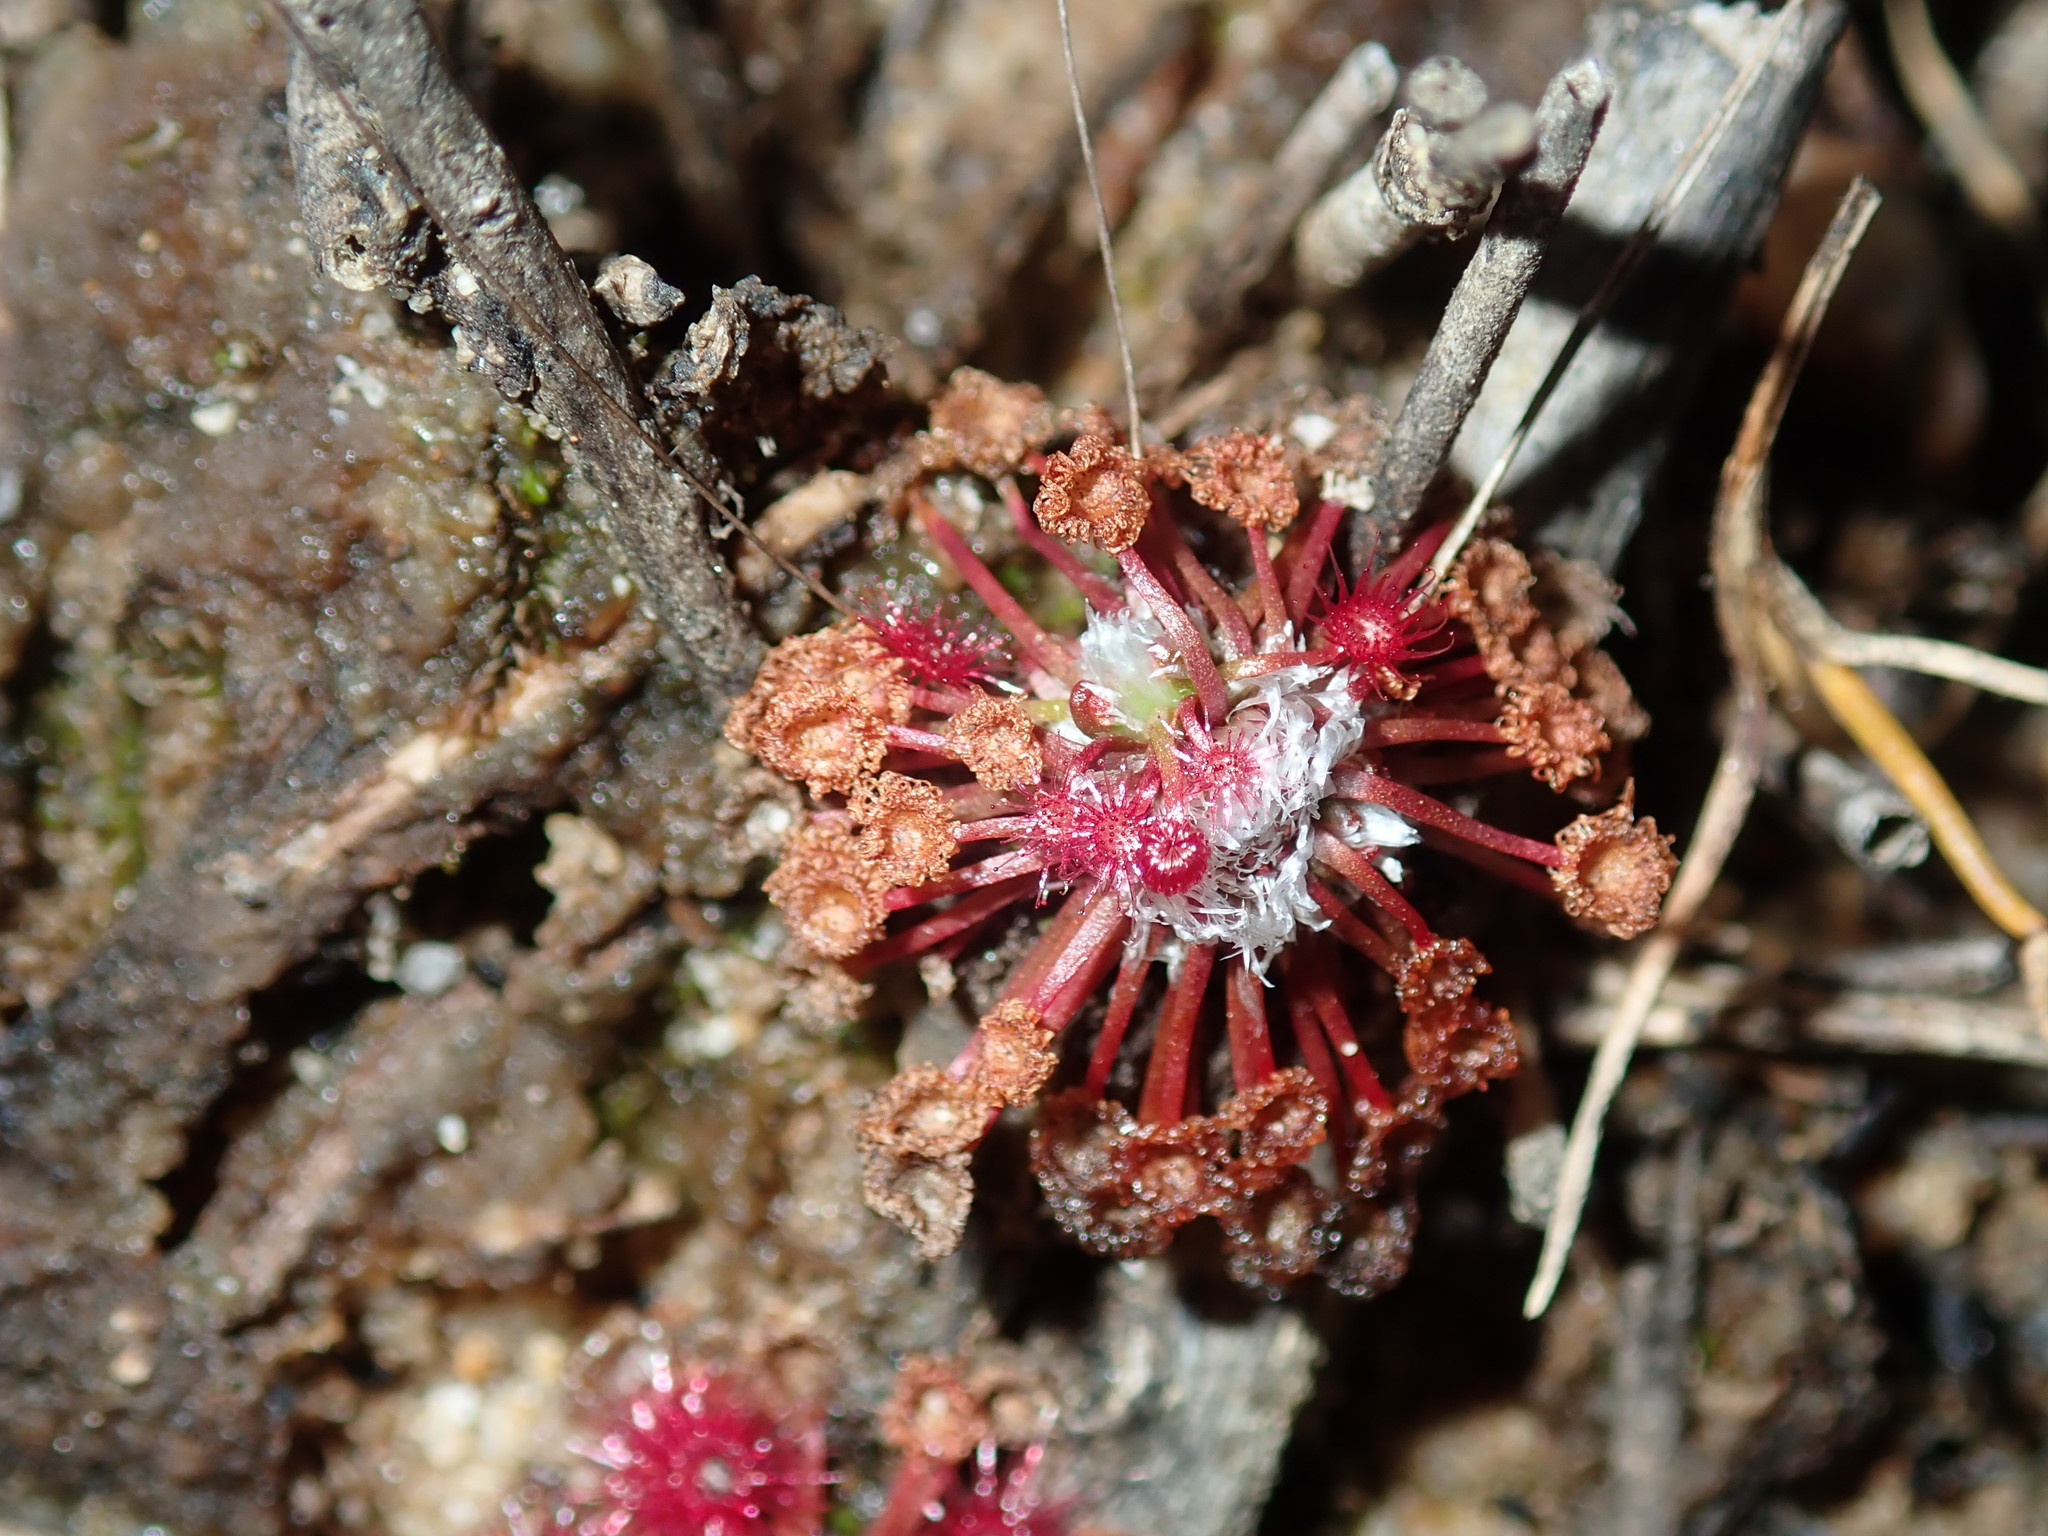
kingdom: Plantae
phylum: Tracheophyta
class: Magnoliopsida
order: Caryophyllales
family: Droseraceae
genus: Drosera
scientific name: Drosera pygmaea
